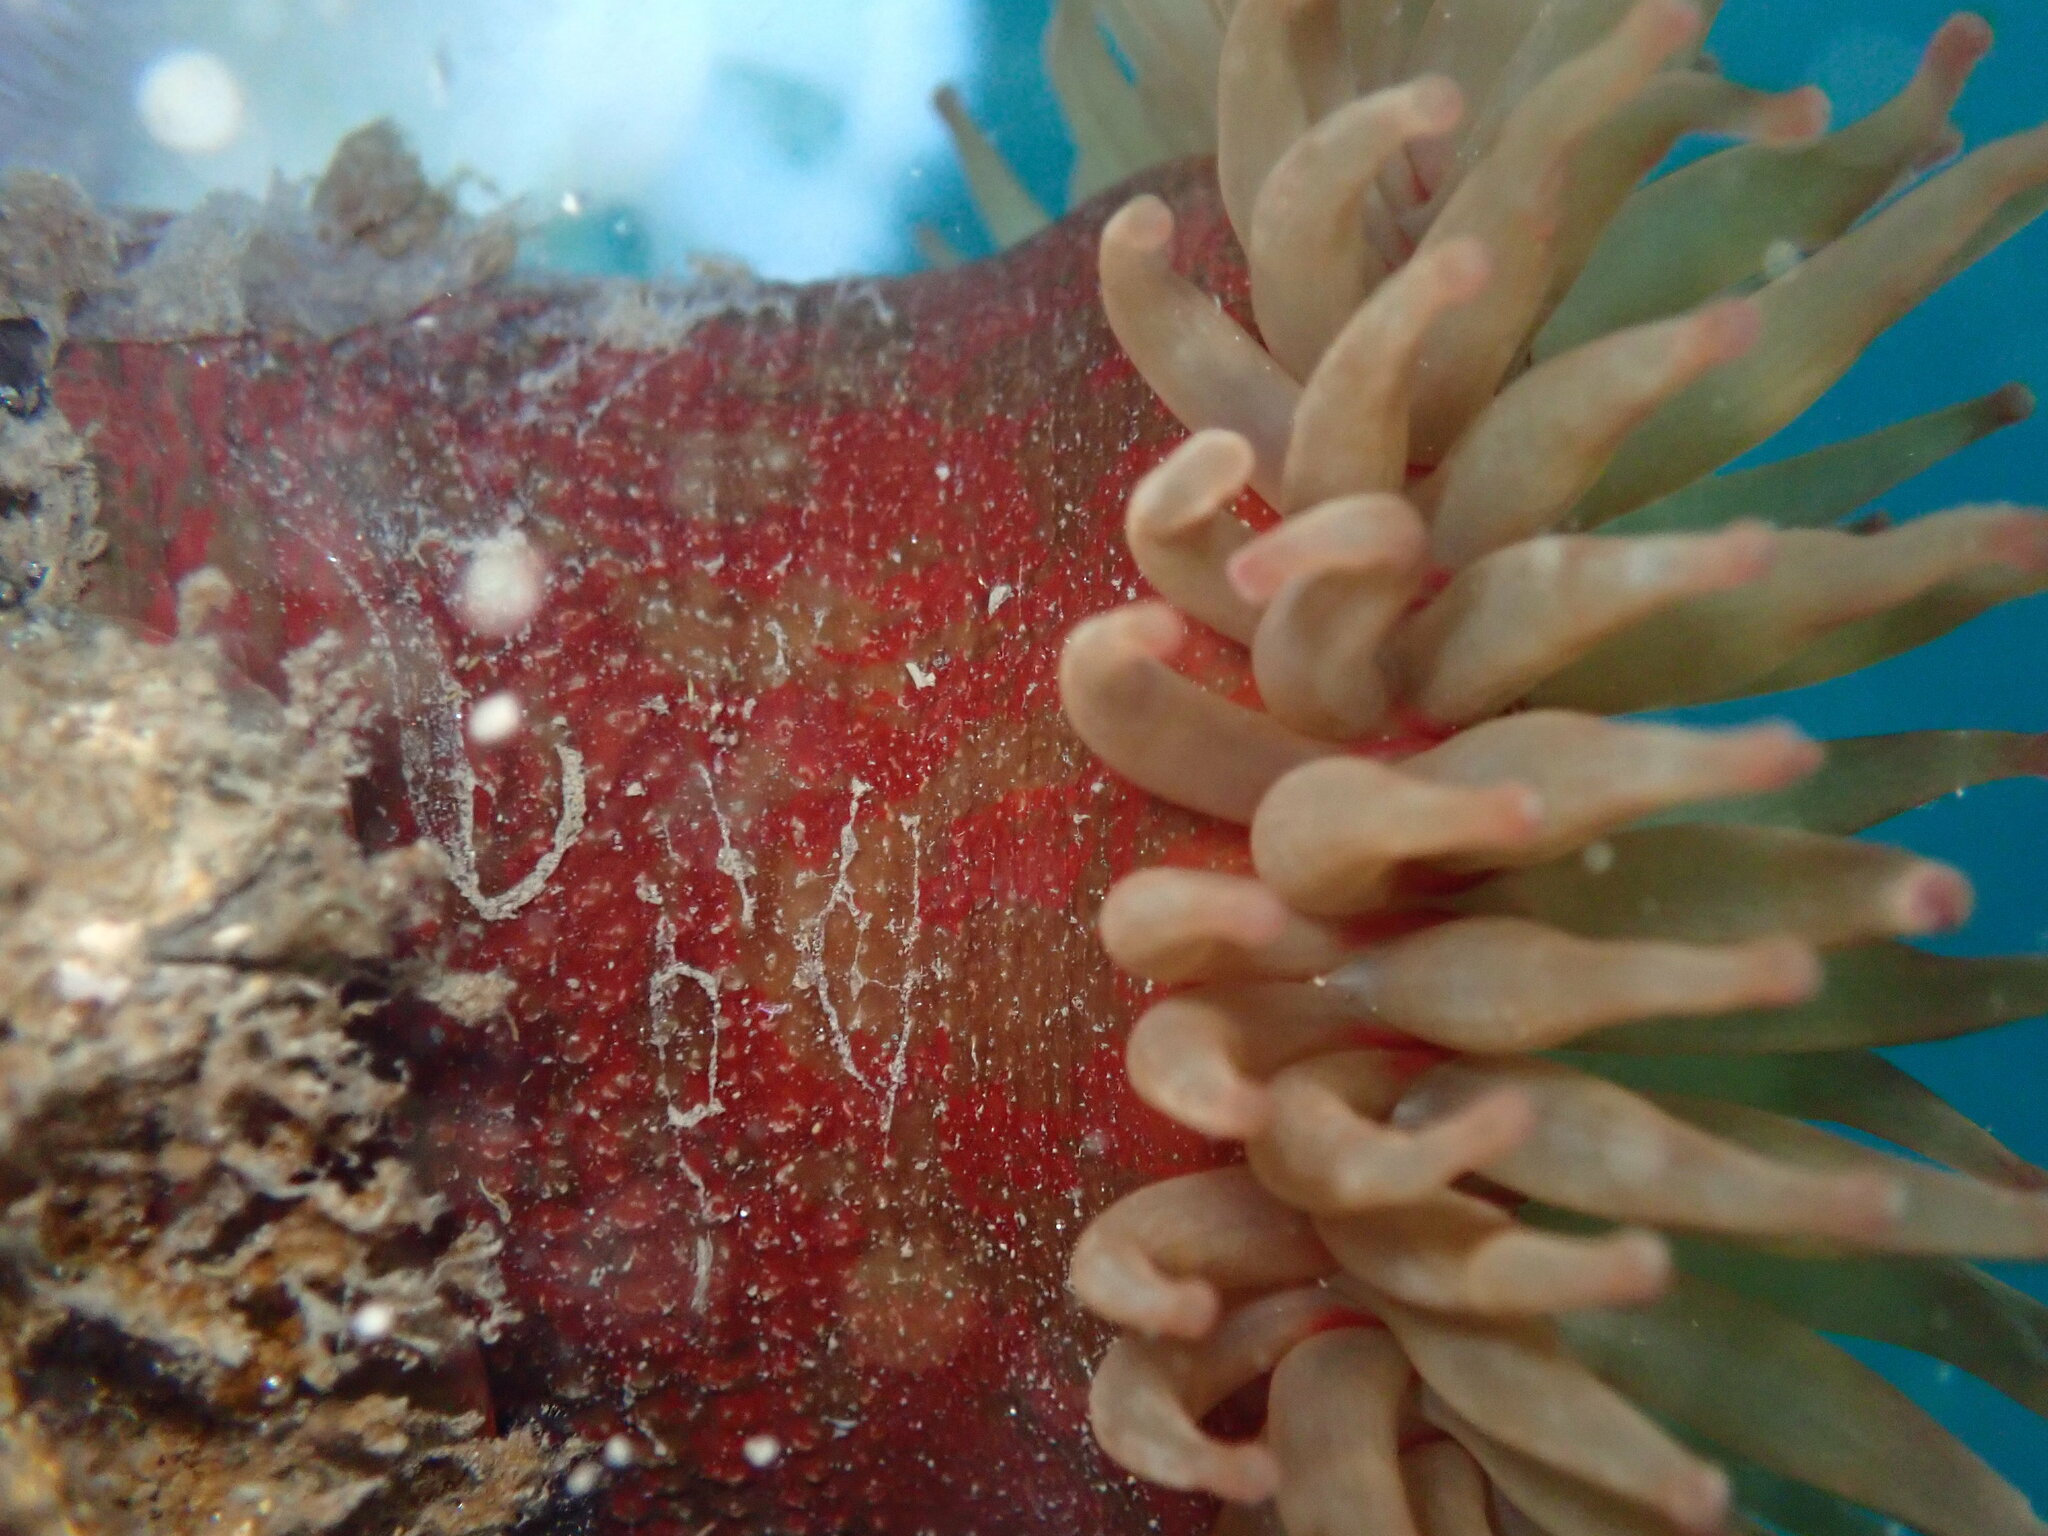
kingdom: Animalia
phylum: Cnidaria
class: Anthozoa
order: Actiniaria
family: Actiniidae
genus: Urticina
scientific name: Urticina grebelnyi
